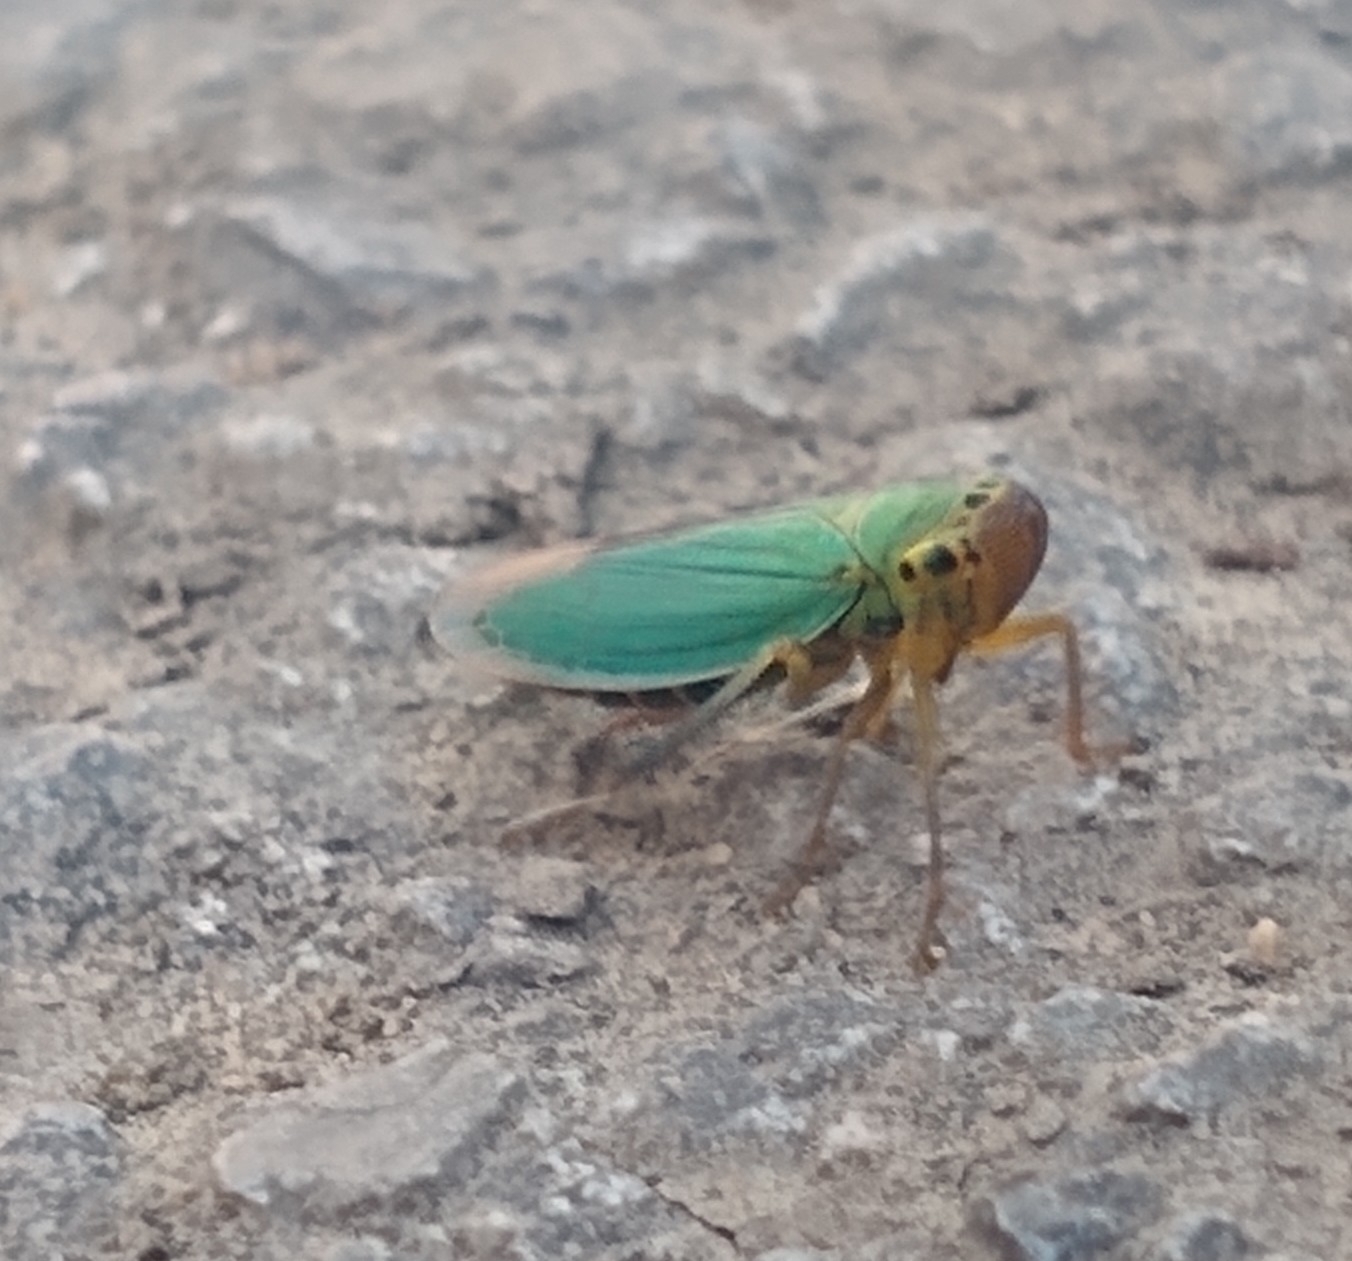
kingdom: Animalia
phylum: Arthropoda
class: Insecta
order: Hemiptera
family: Cicadellidae
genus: Cicadella
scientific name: Cicadella viridis
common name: Leafhopper
